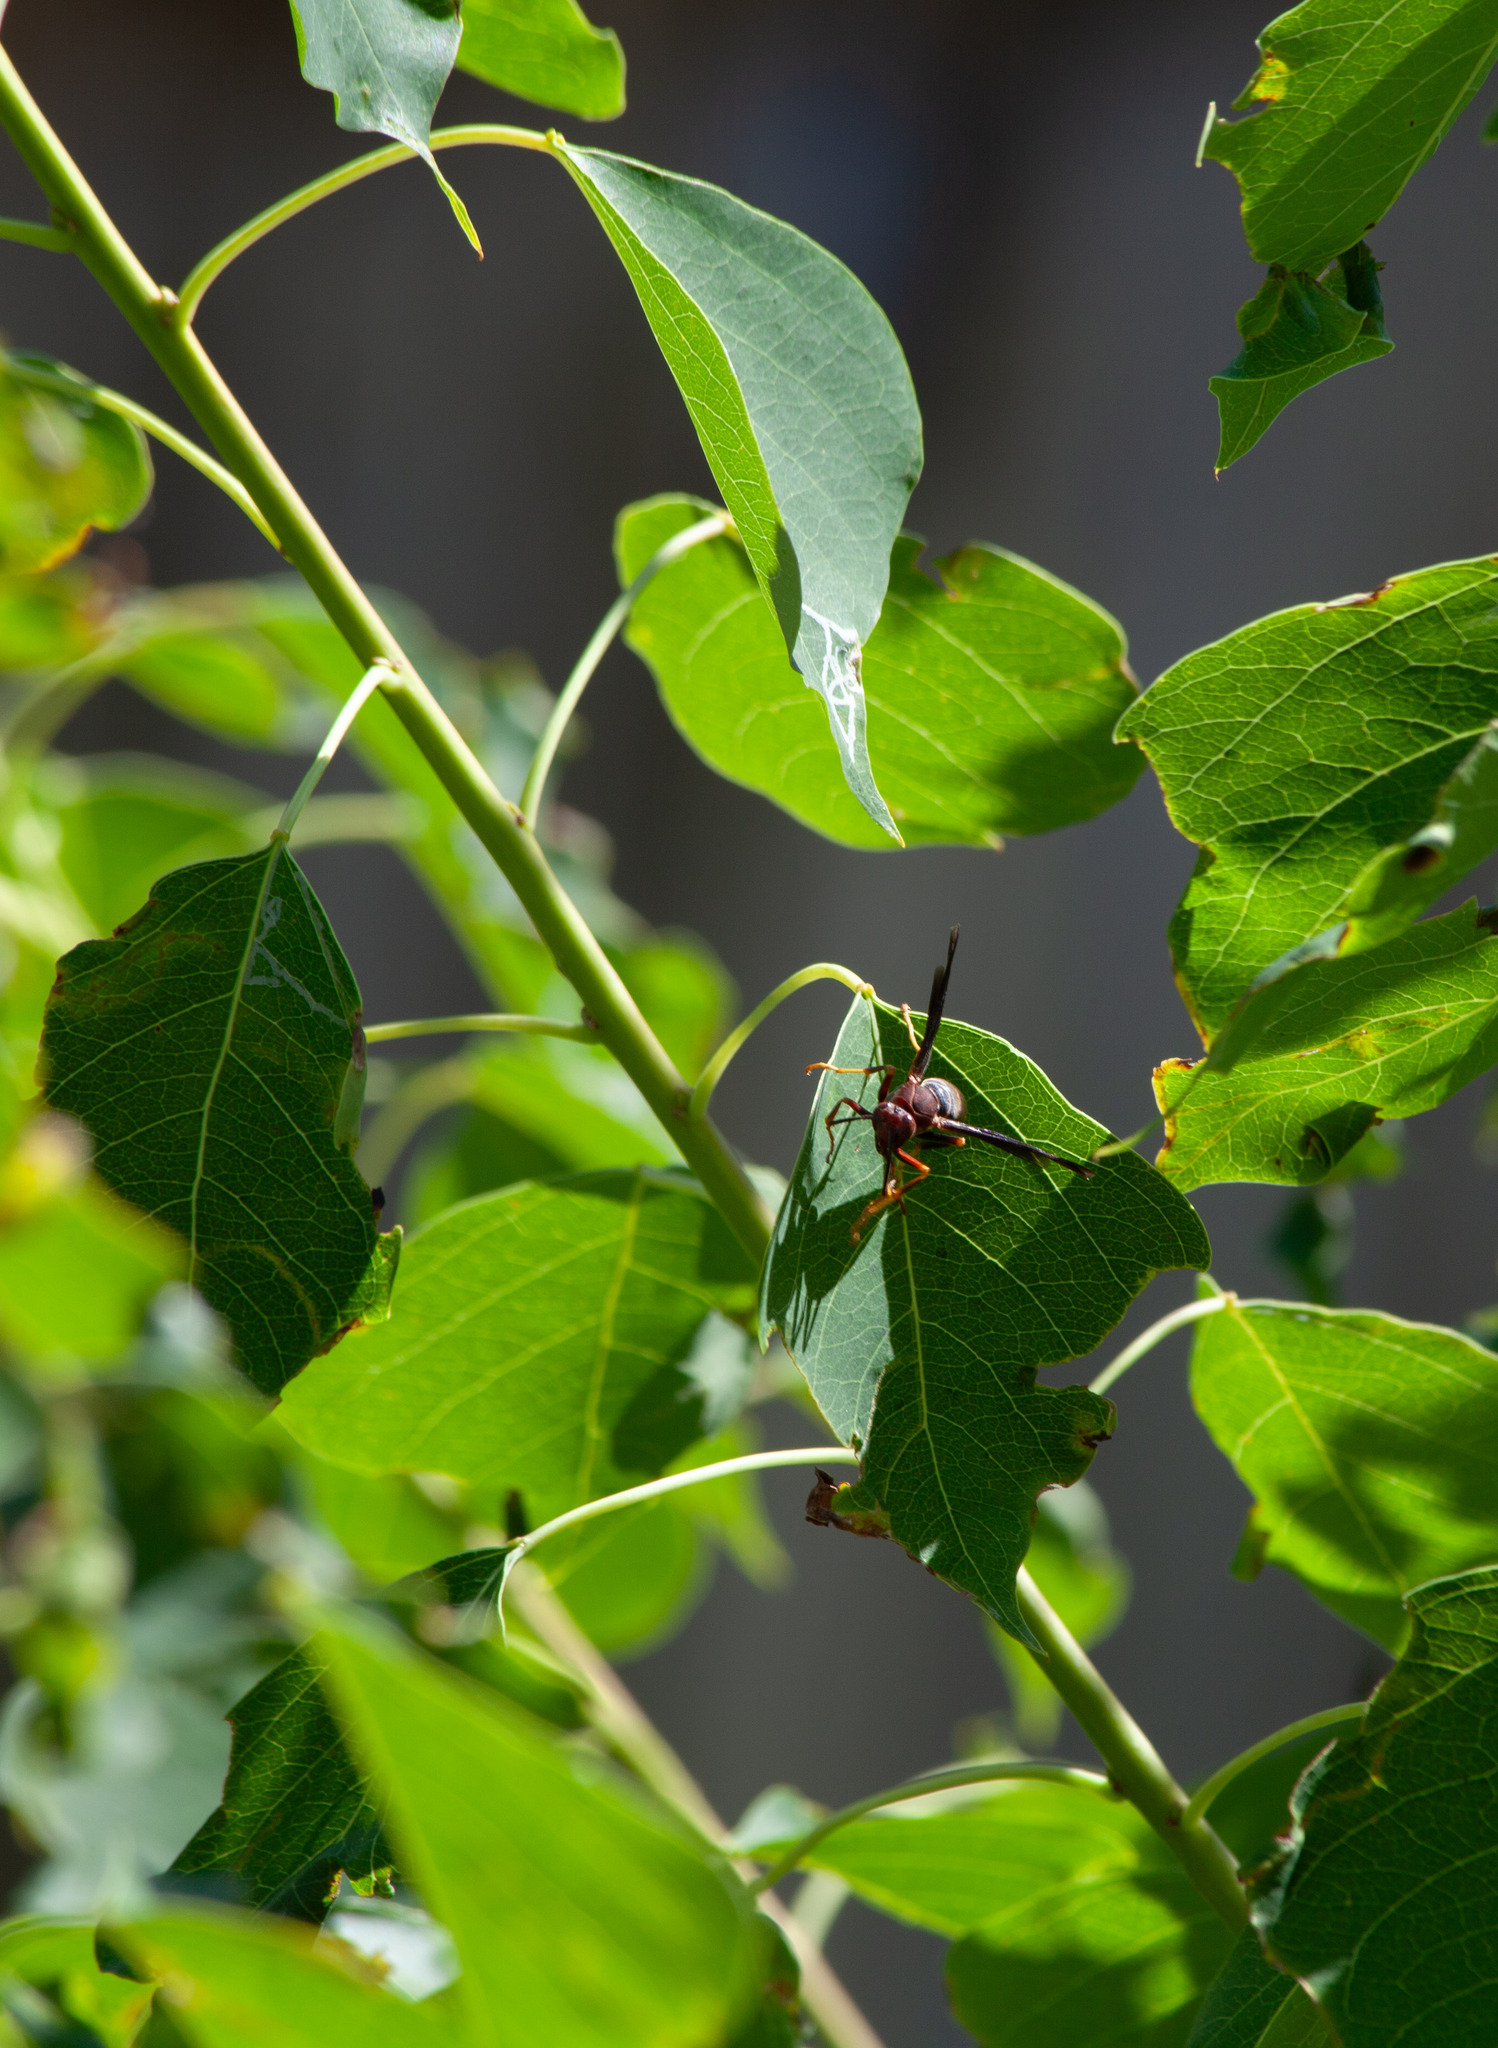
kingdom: Animalia
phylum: Arthropoda
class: Insecta
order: Hymenoptera
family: Eumenidae
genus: Polistes
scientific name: Polistes metricus
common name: Metric paper wasp
